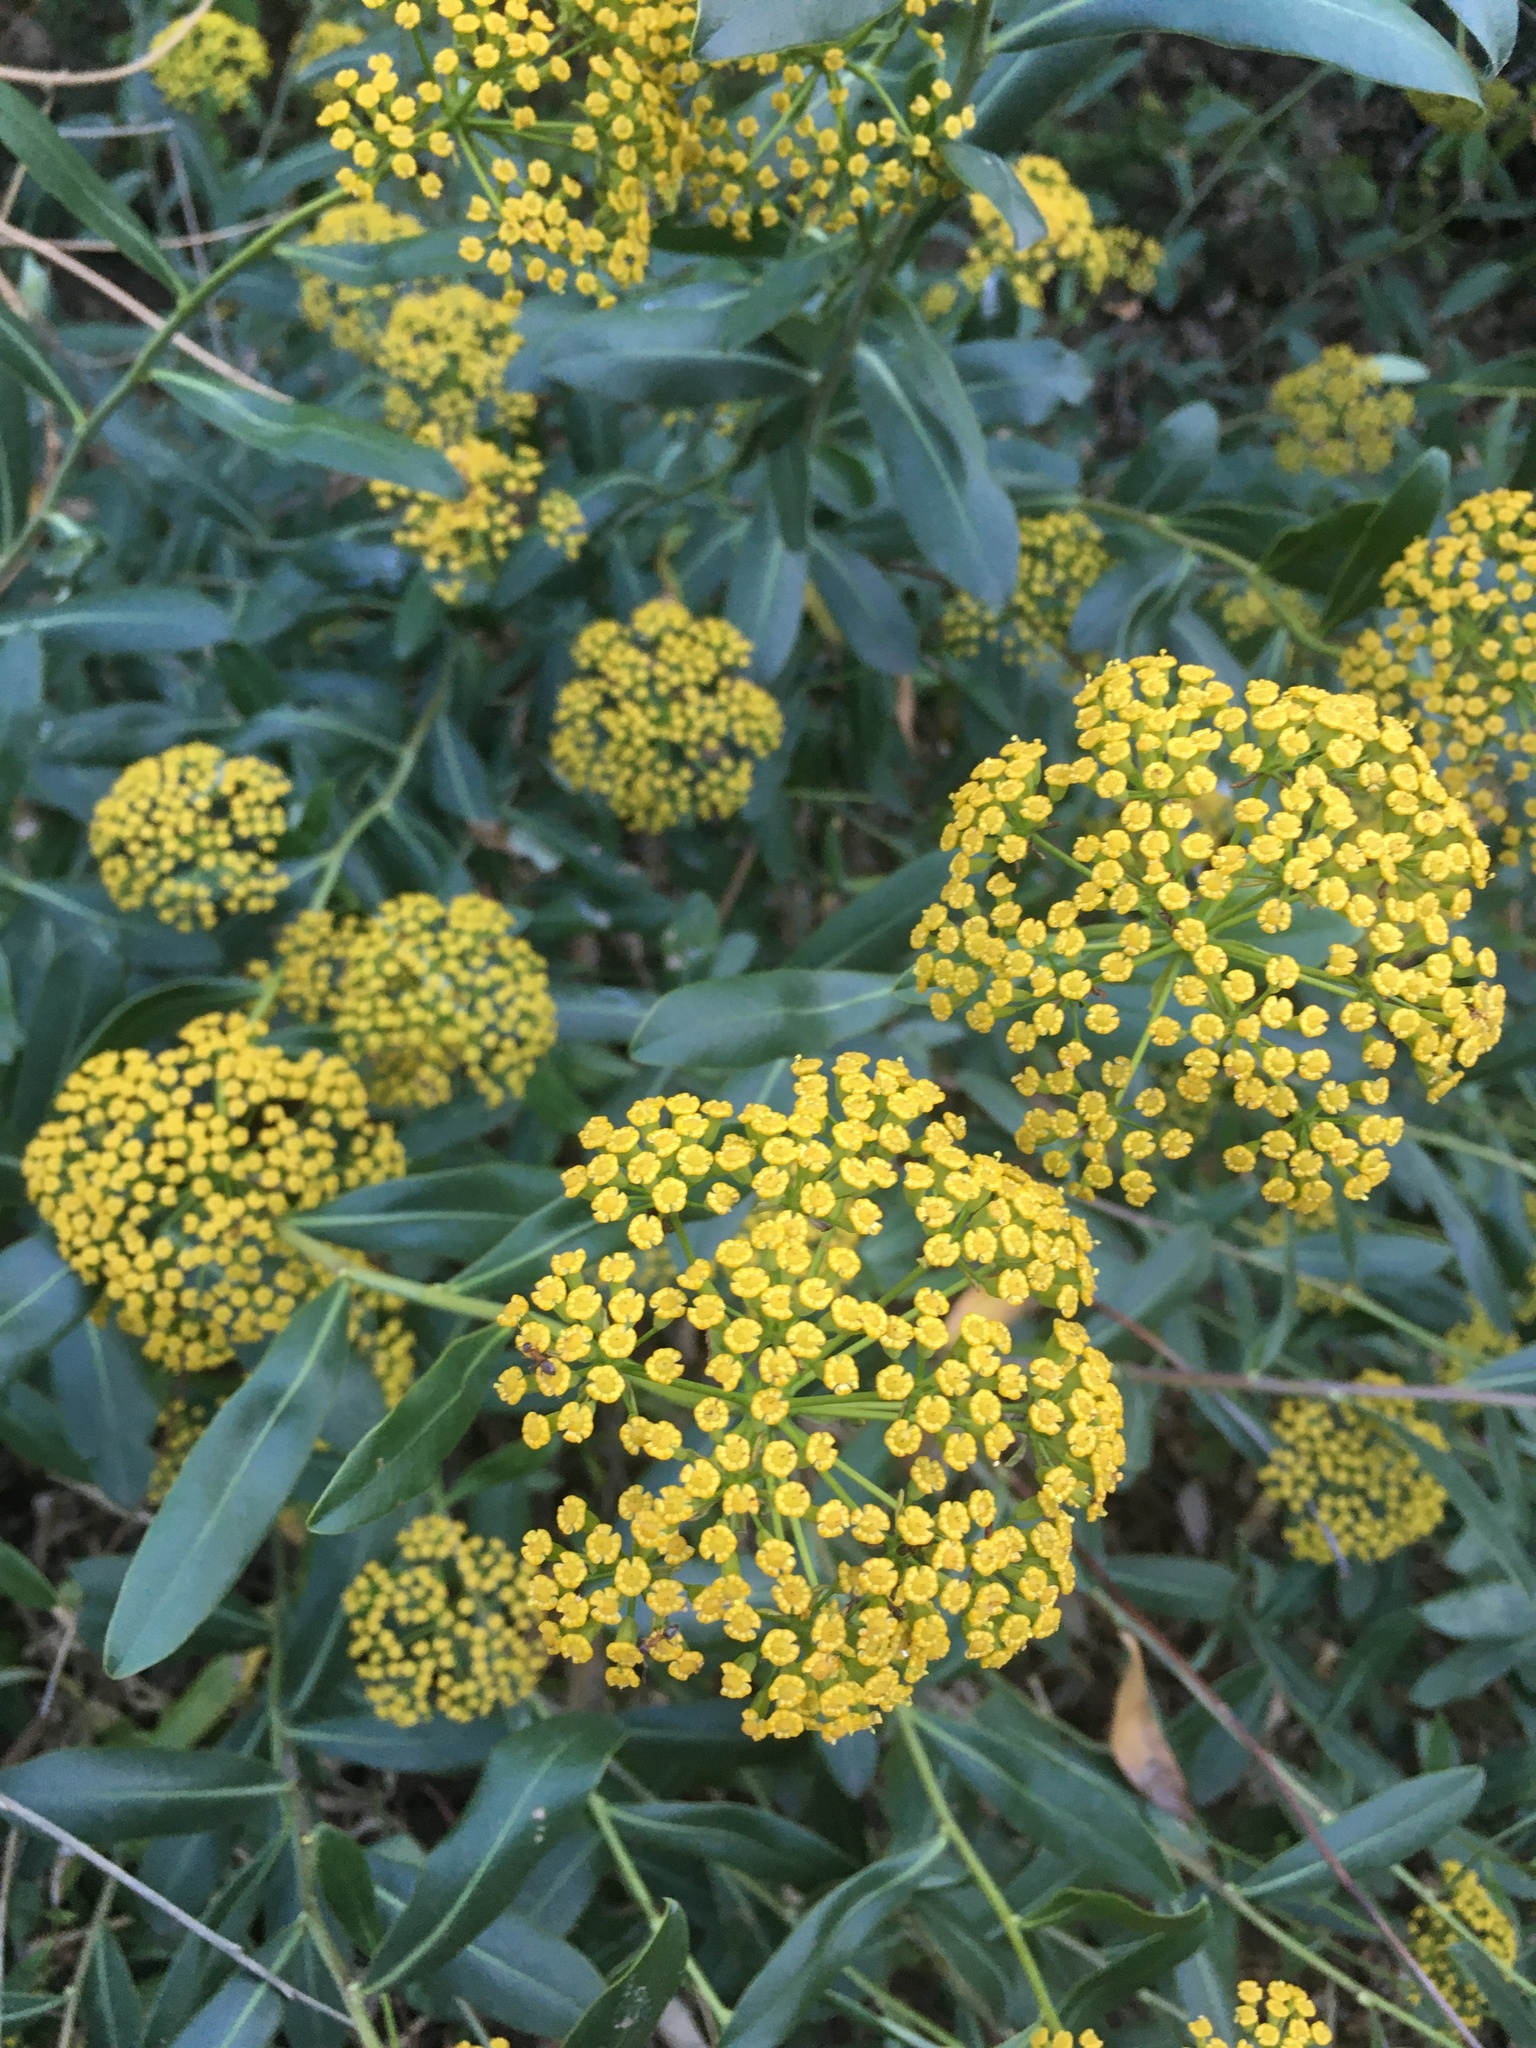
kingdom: Plantae
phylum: Tracheophyta
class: Magnoliopsida
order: Apiales
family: Apiaceae
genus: Bupleurum
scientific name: Bupleurum fruticosum
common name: Shrubby hare's-ear
